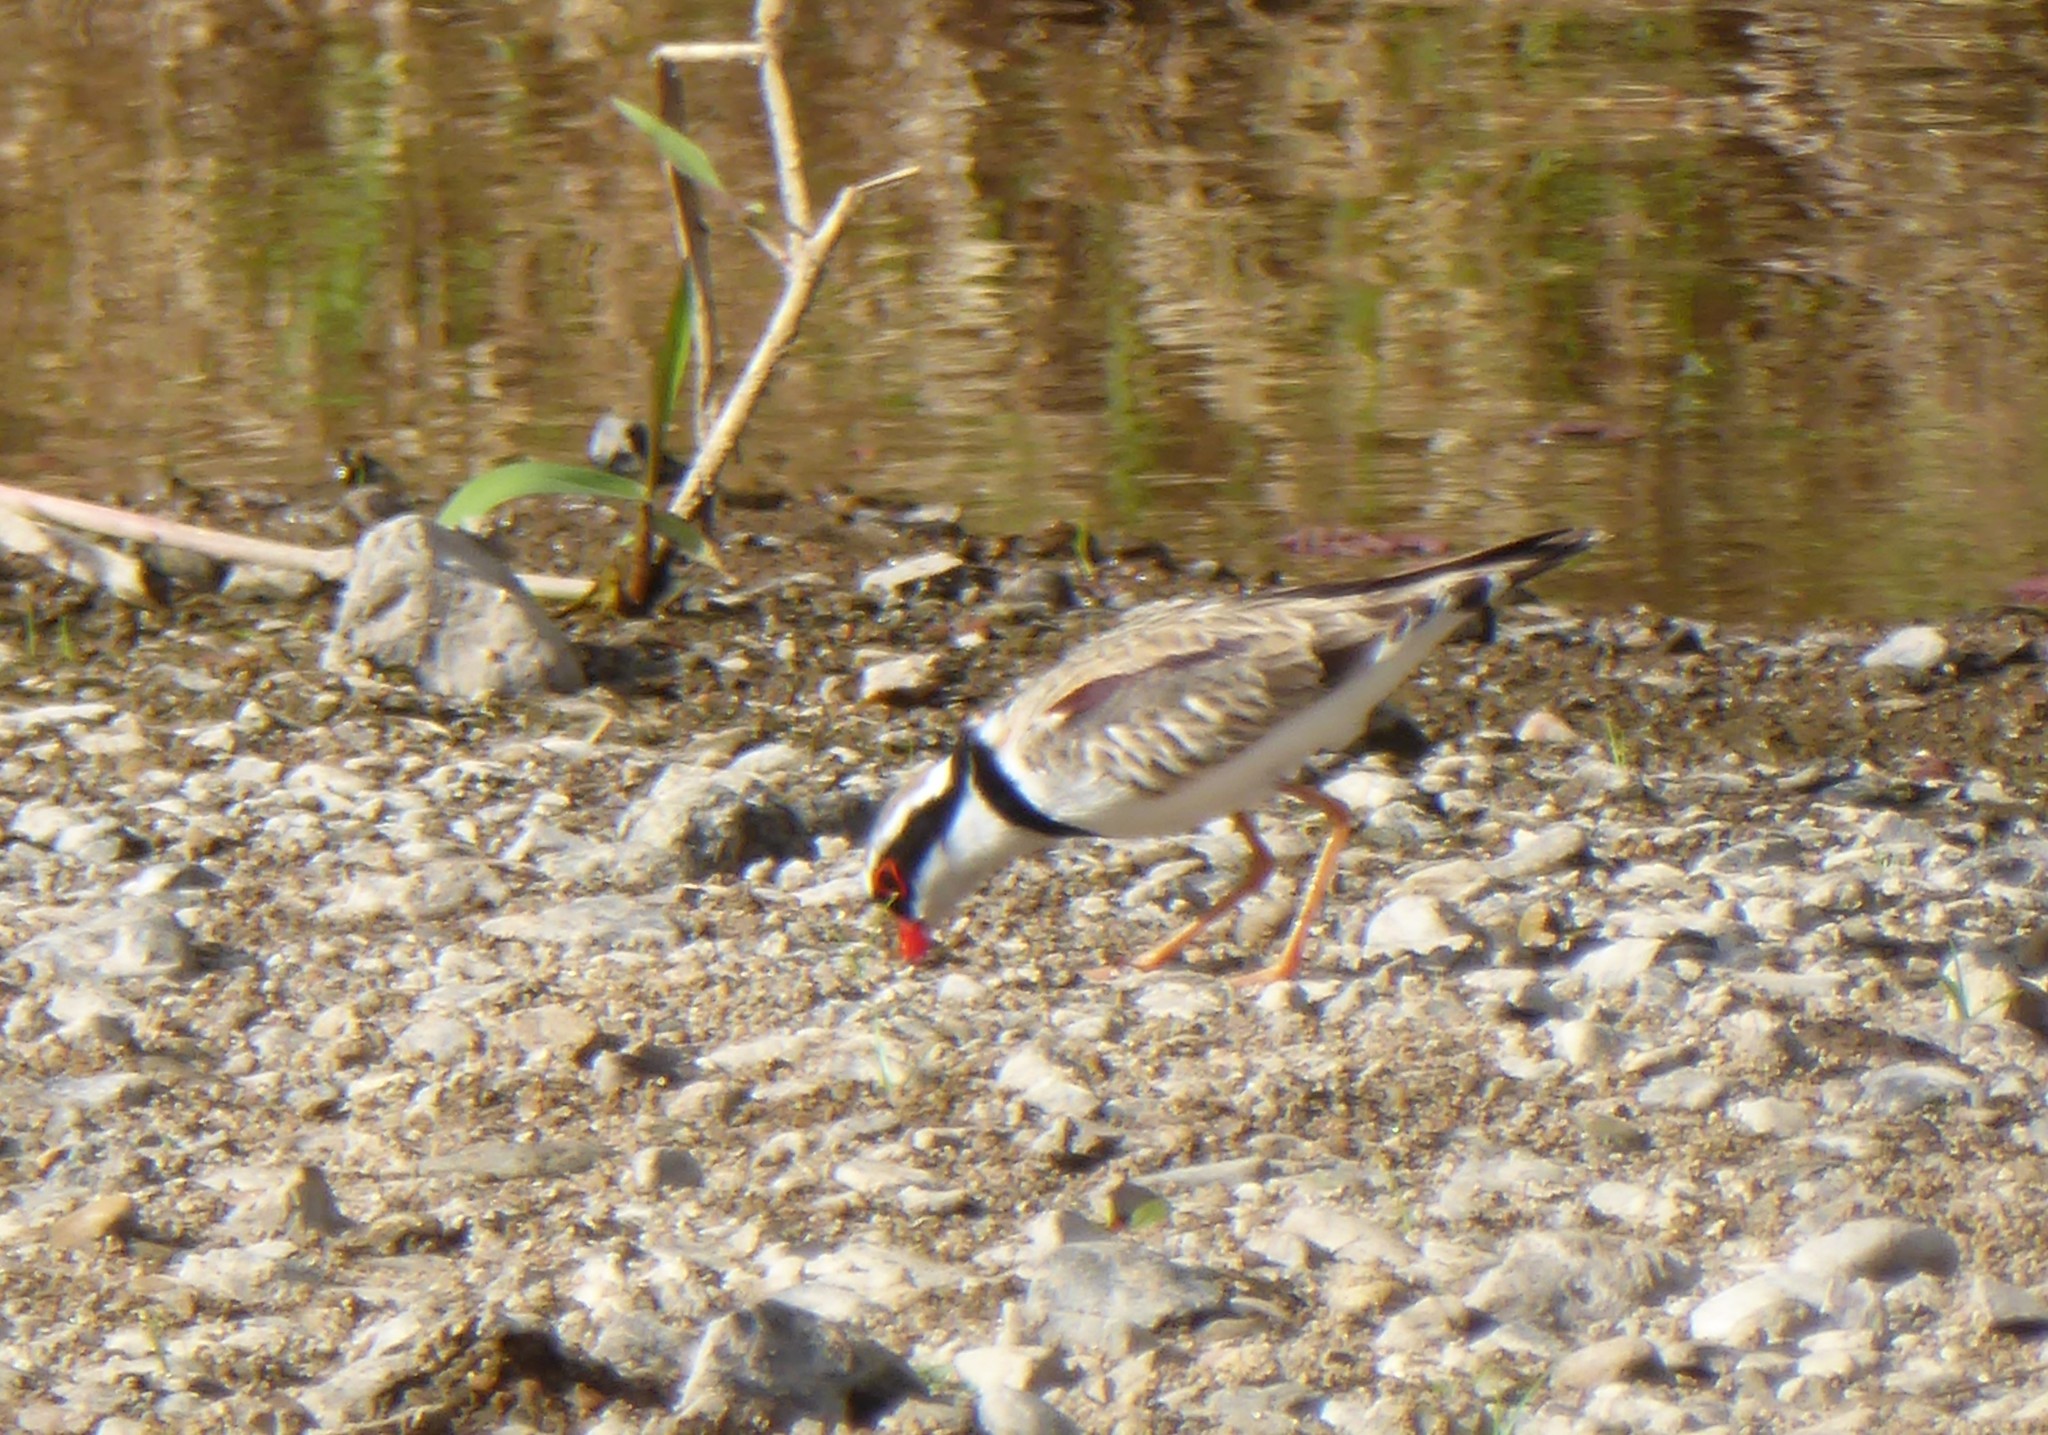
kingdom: Animalia
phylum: Chordata
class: Aves
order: Charadriiformes
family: Charadriidae
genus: Elseyornis
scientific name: Elseyornis melanops
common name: Black-fronted dotterel
